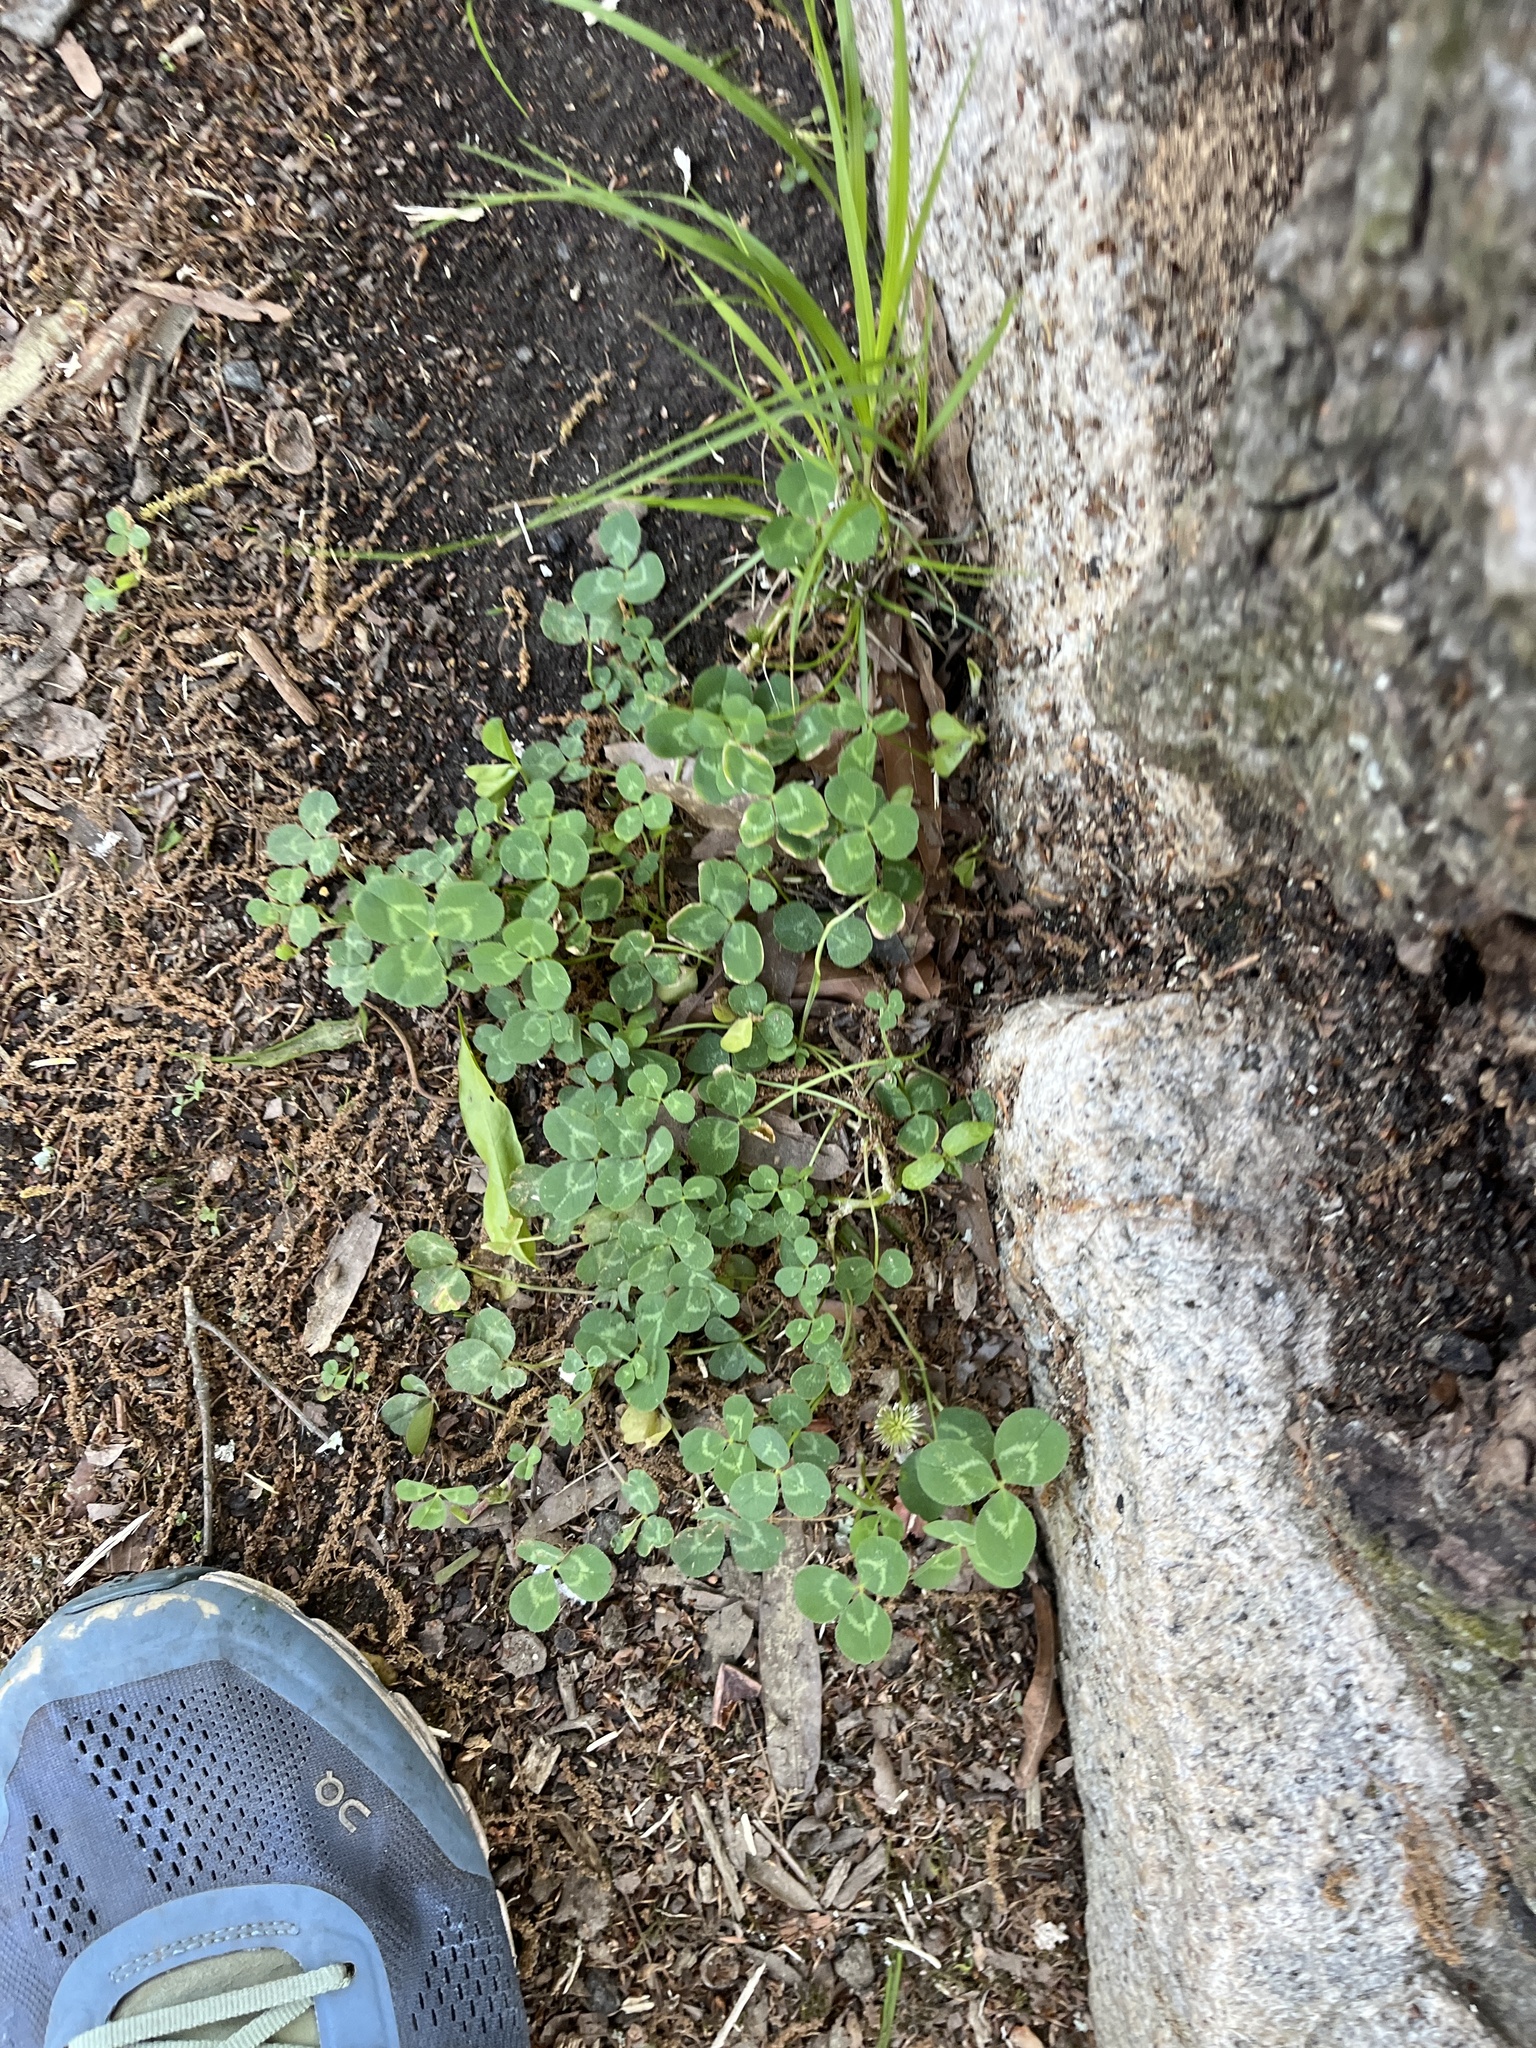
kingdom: Plantae
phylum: Tracheophyta
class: Magnoliopsida
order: Fabales
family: Fabaceae
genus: Trifolium
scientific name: Trifolium repens
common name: White clover
